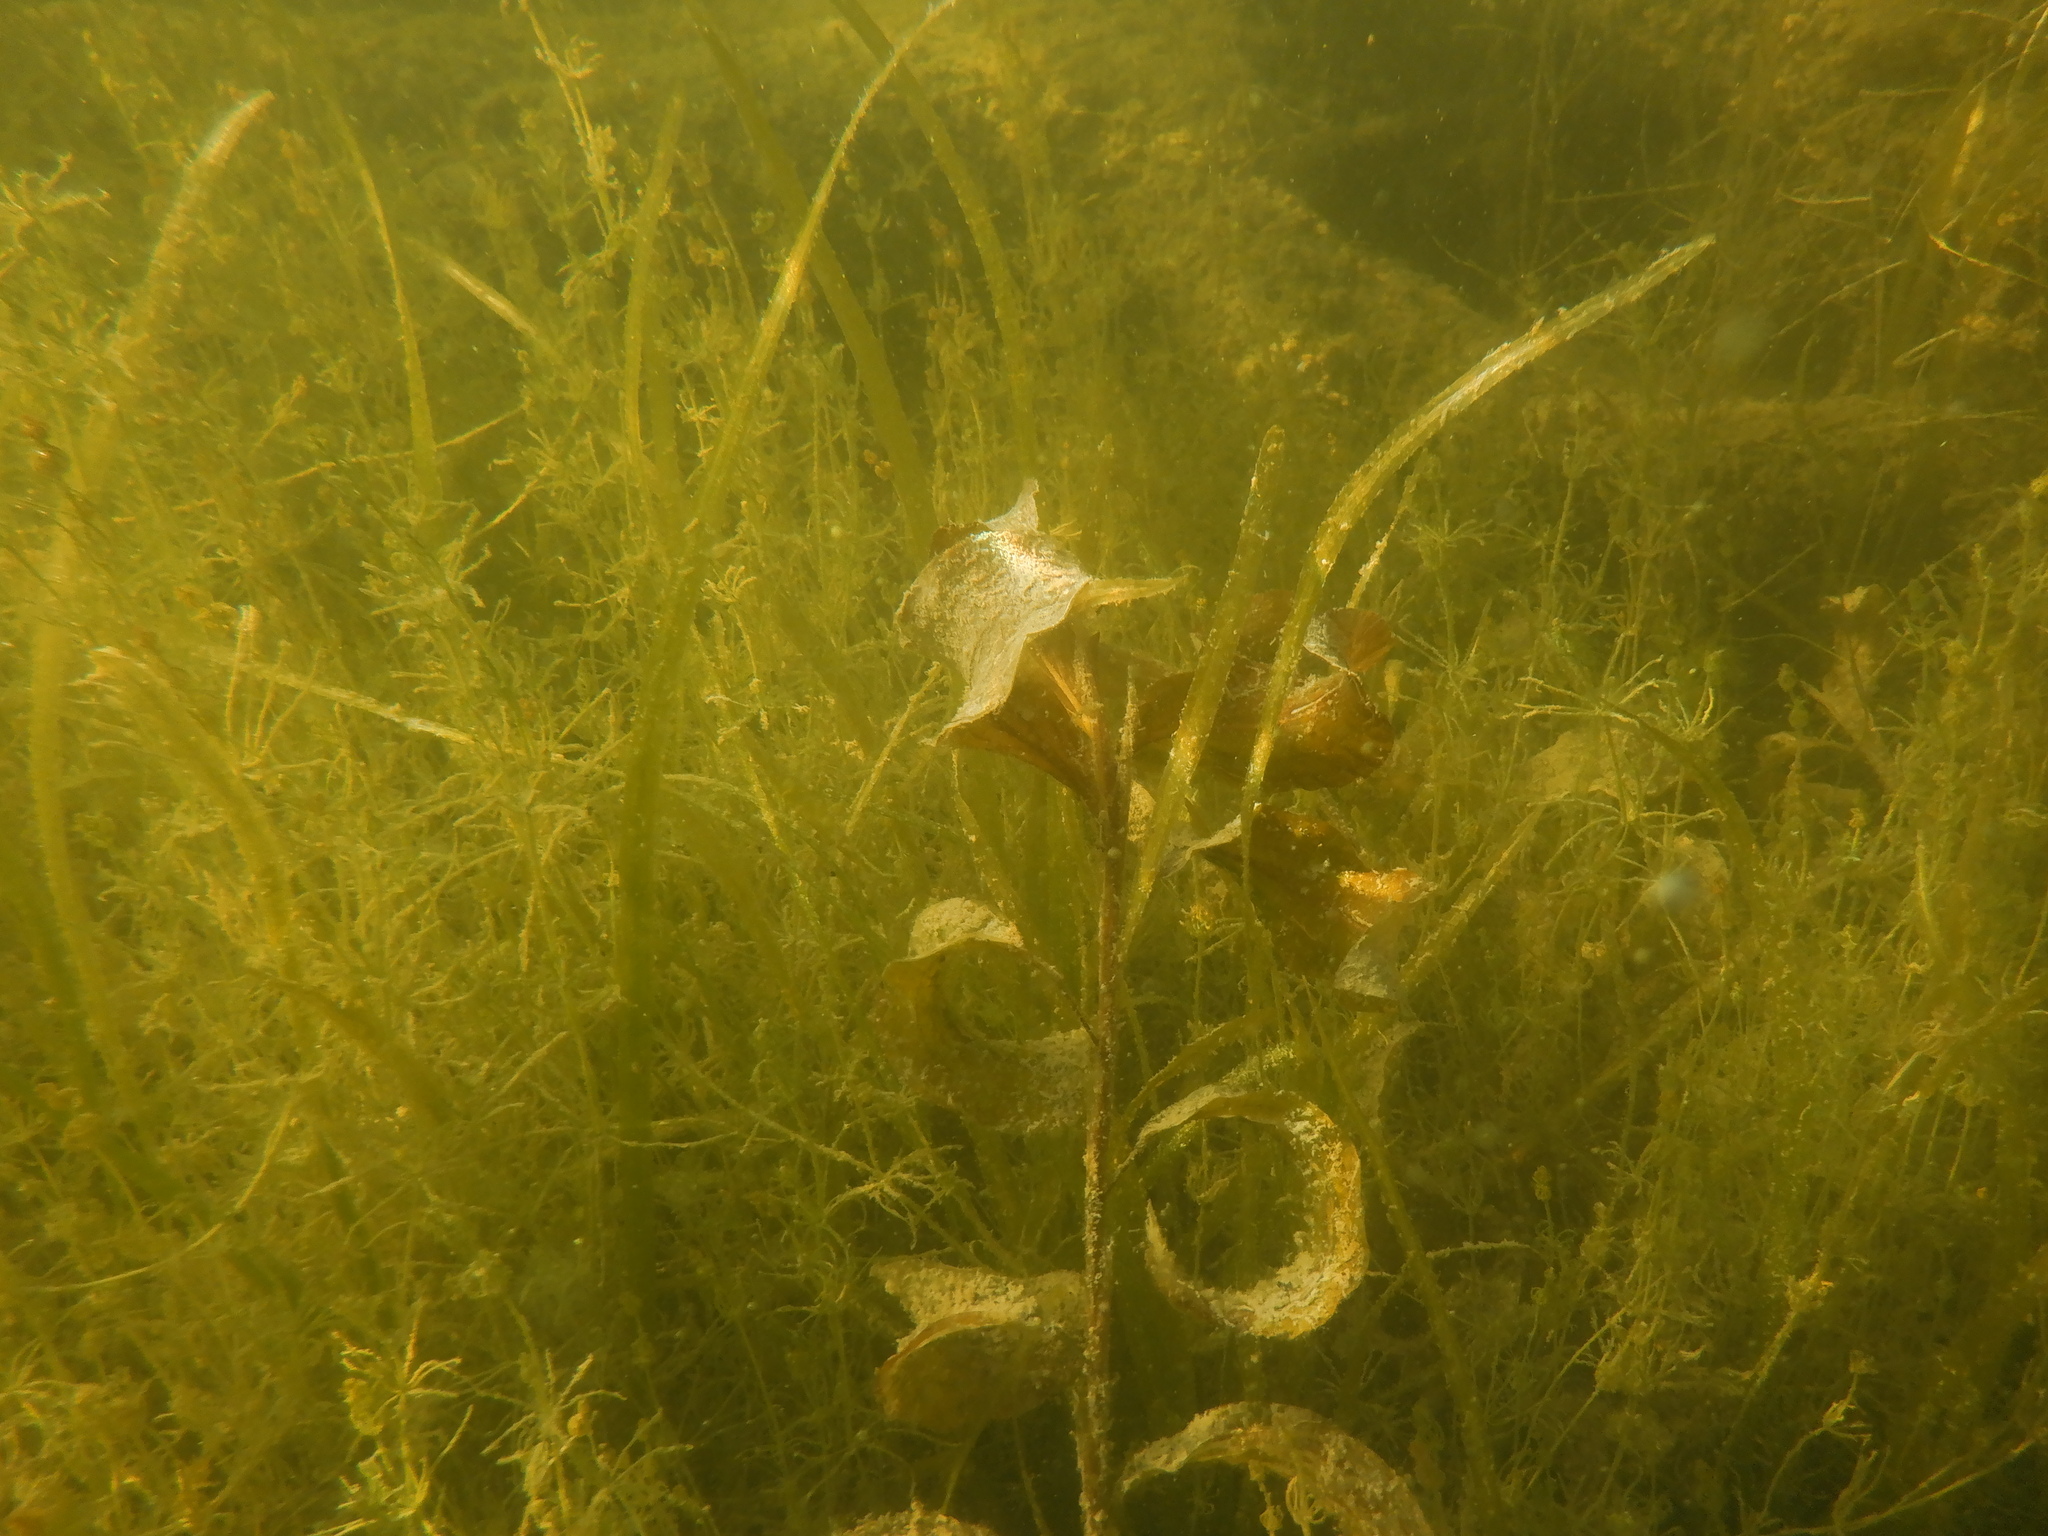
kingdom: Plantae
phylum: Tracheophyta
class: Liliopsida
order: Alismatales
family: Potamogetonaceae
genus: Potamogeton
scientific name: Potamogeton amplifolius
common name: Broad-leaved pondweed
